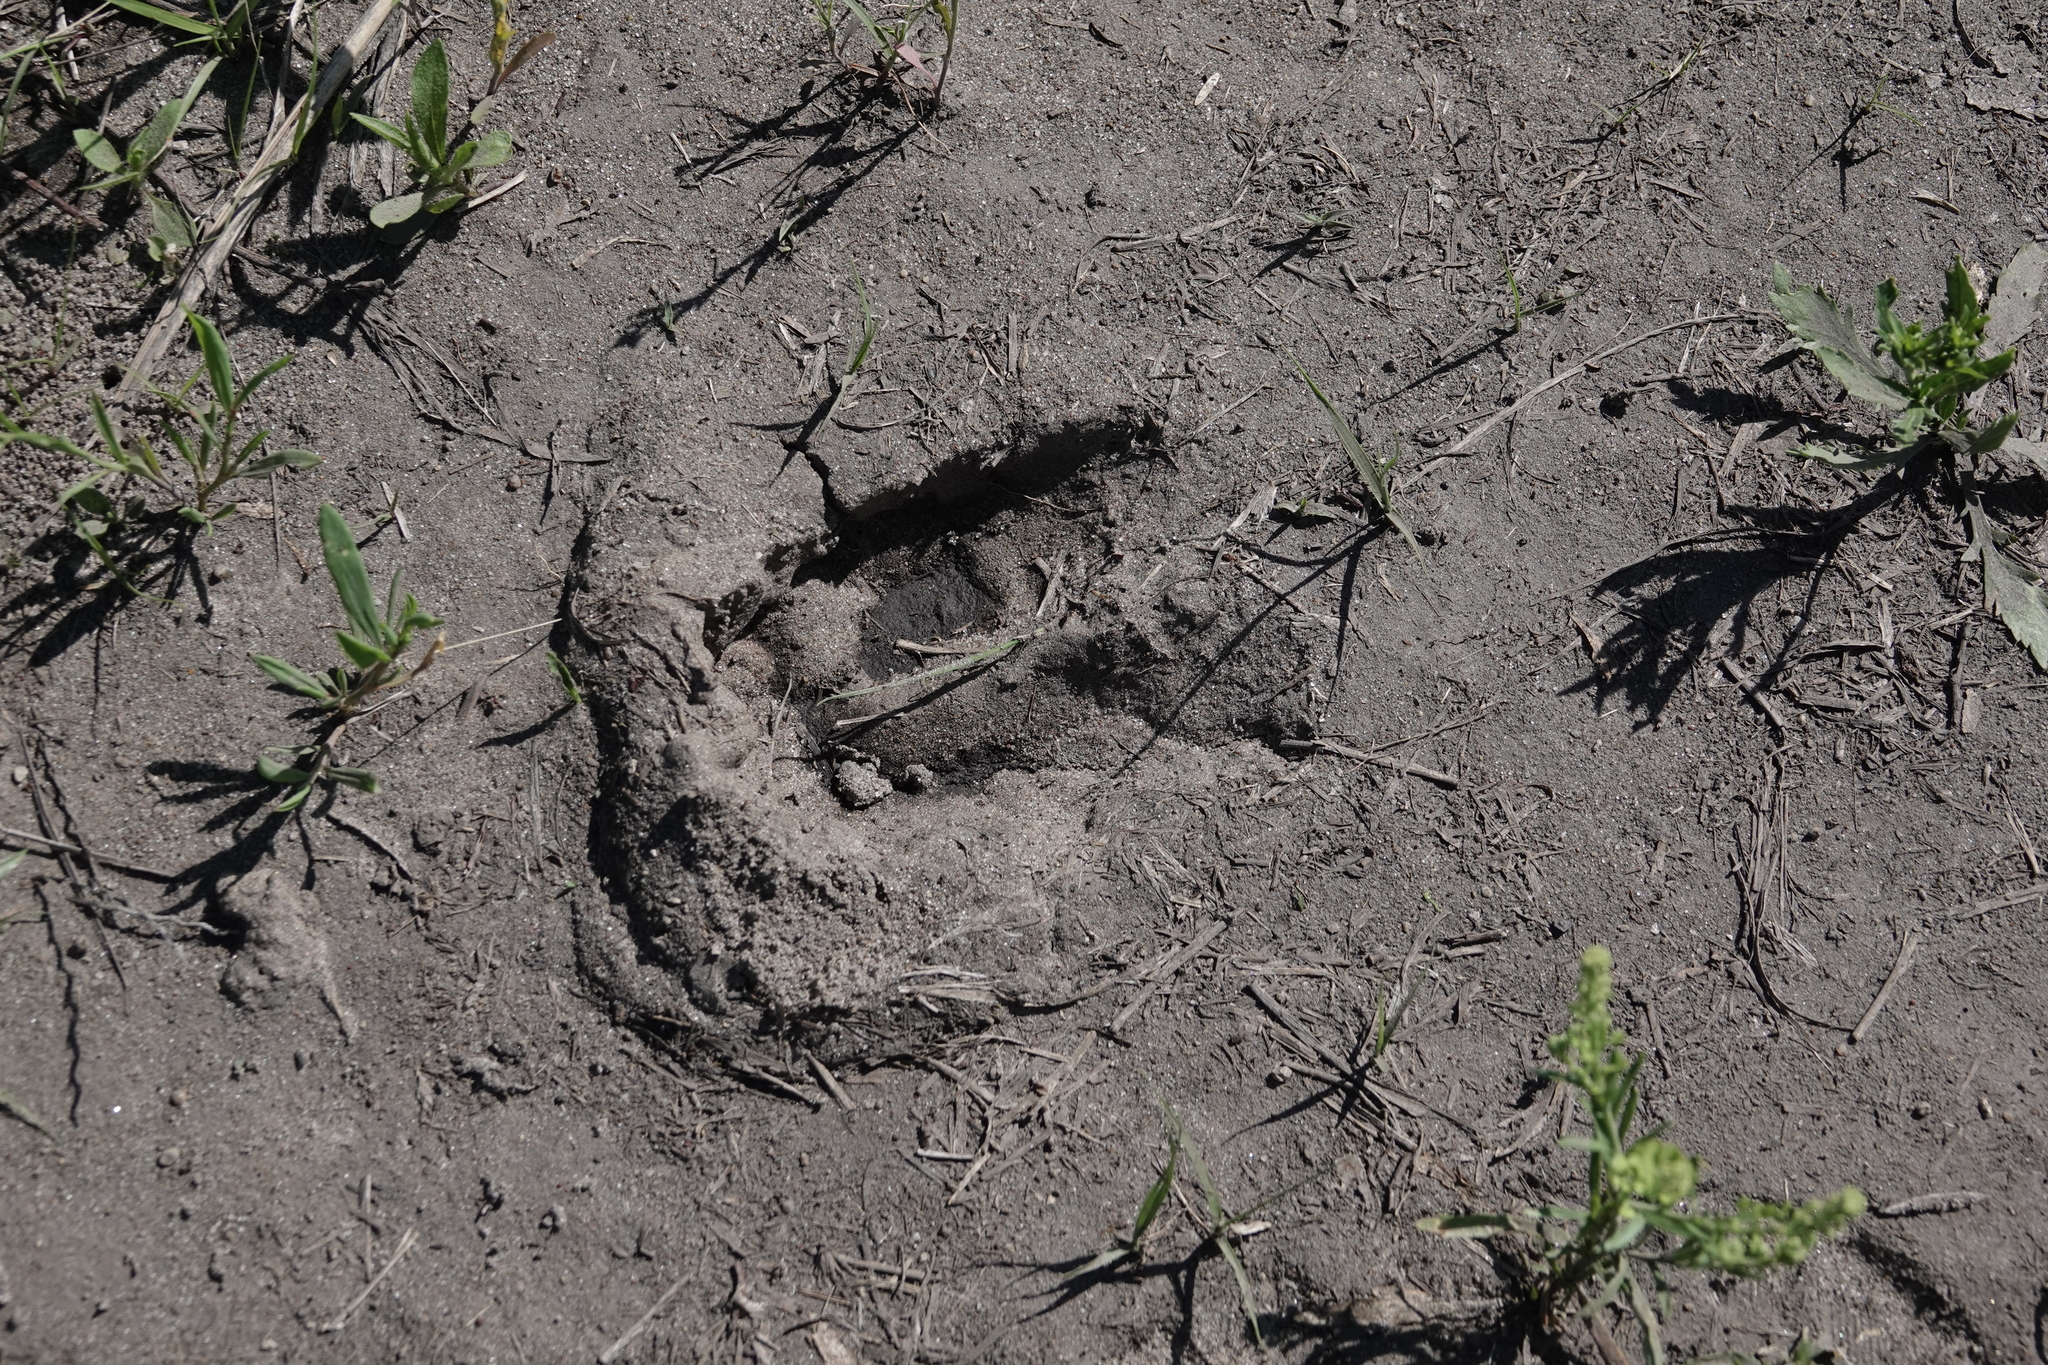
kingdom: Animalia
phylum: Chordata
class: Mammalia
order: Artiodactyla
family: Cervidae
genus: Odocoileus
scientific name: Odocoileus virginianus
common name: White-tailed deer
